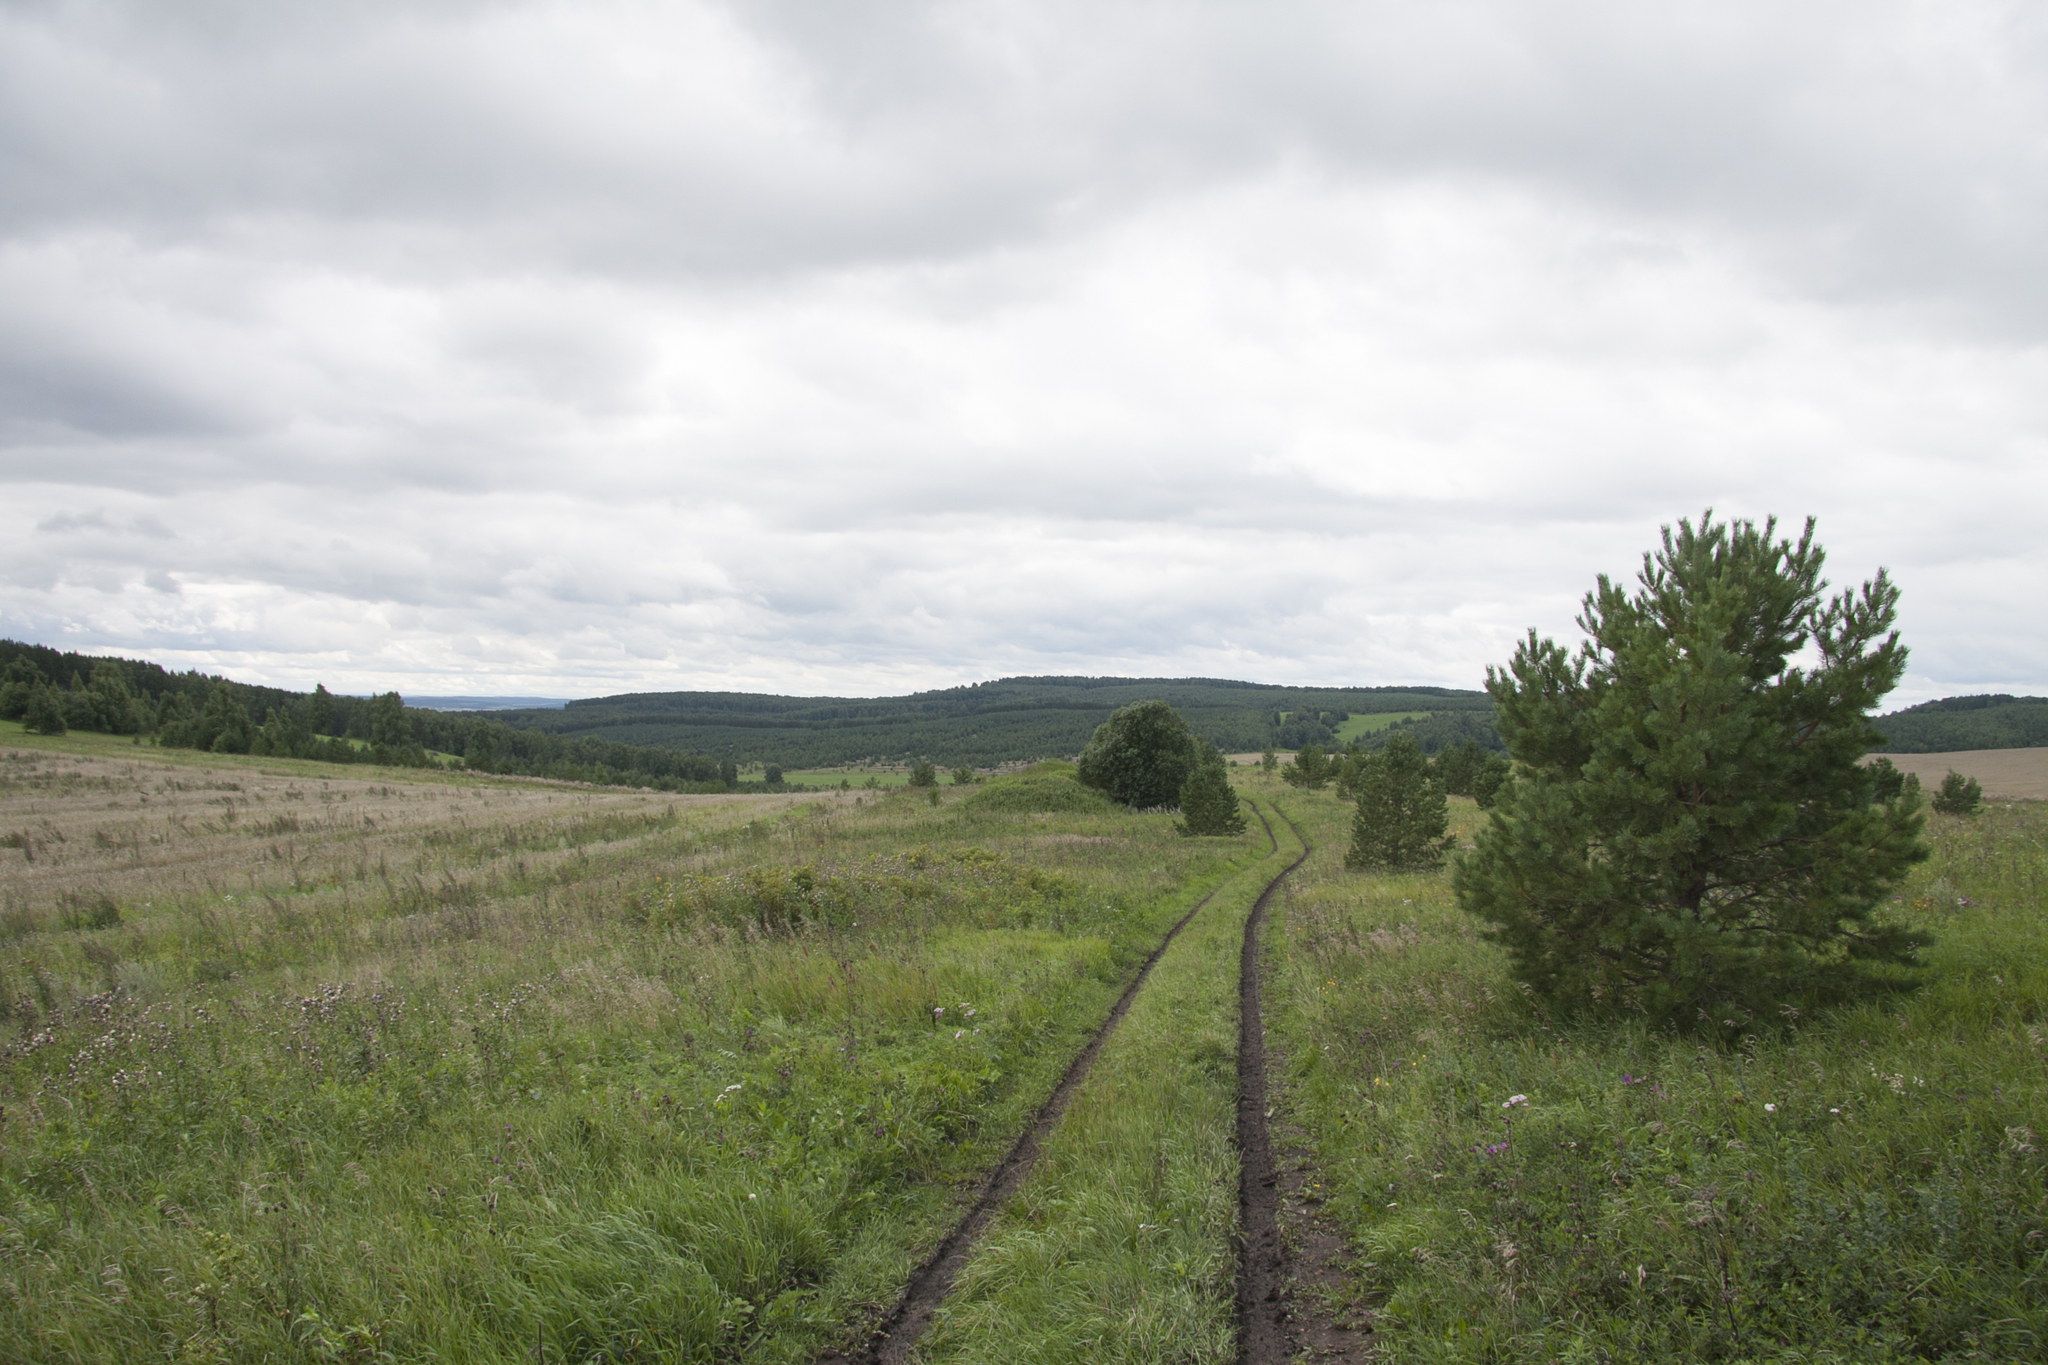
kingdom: Plantae
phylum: Tracheophyta
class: Pinopsida
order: Pinales
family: Pinaceae
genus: Pinus
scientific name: Pinus sylvestris
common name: Scots pine
